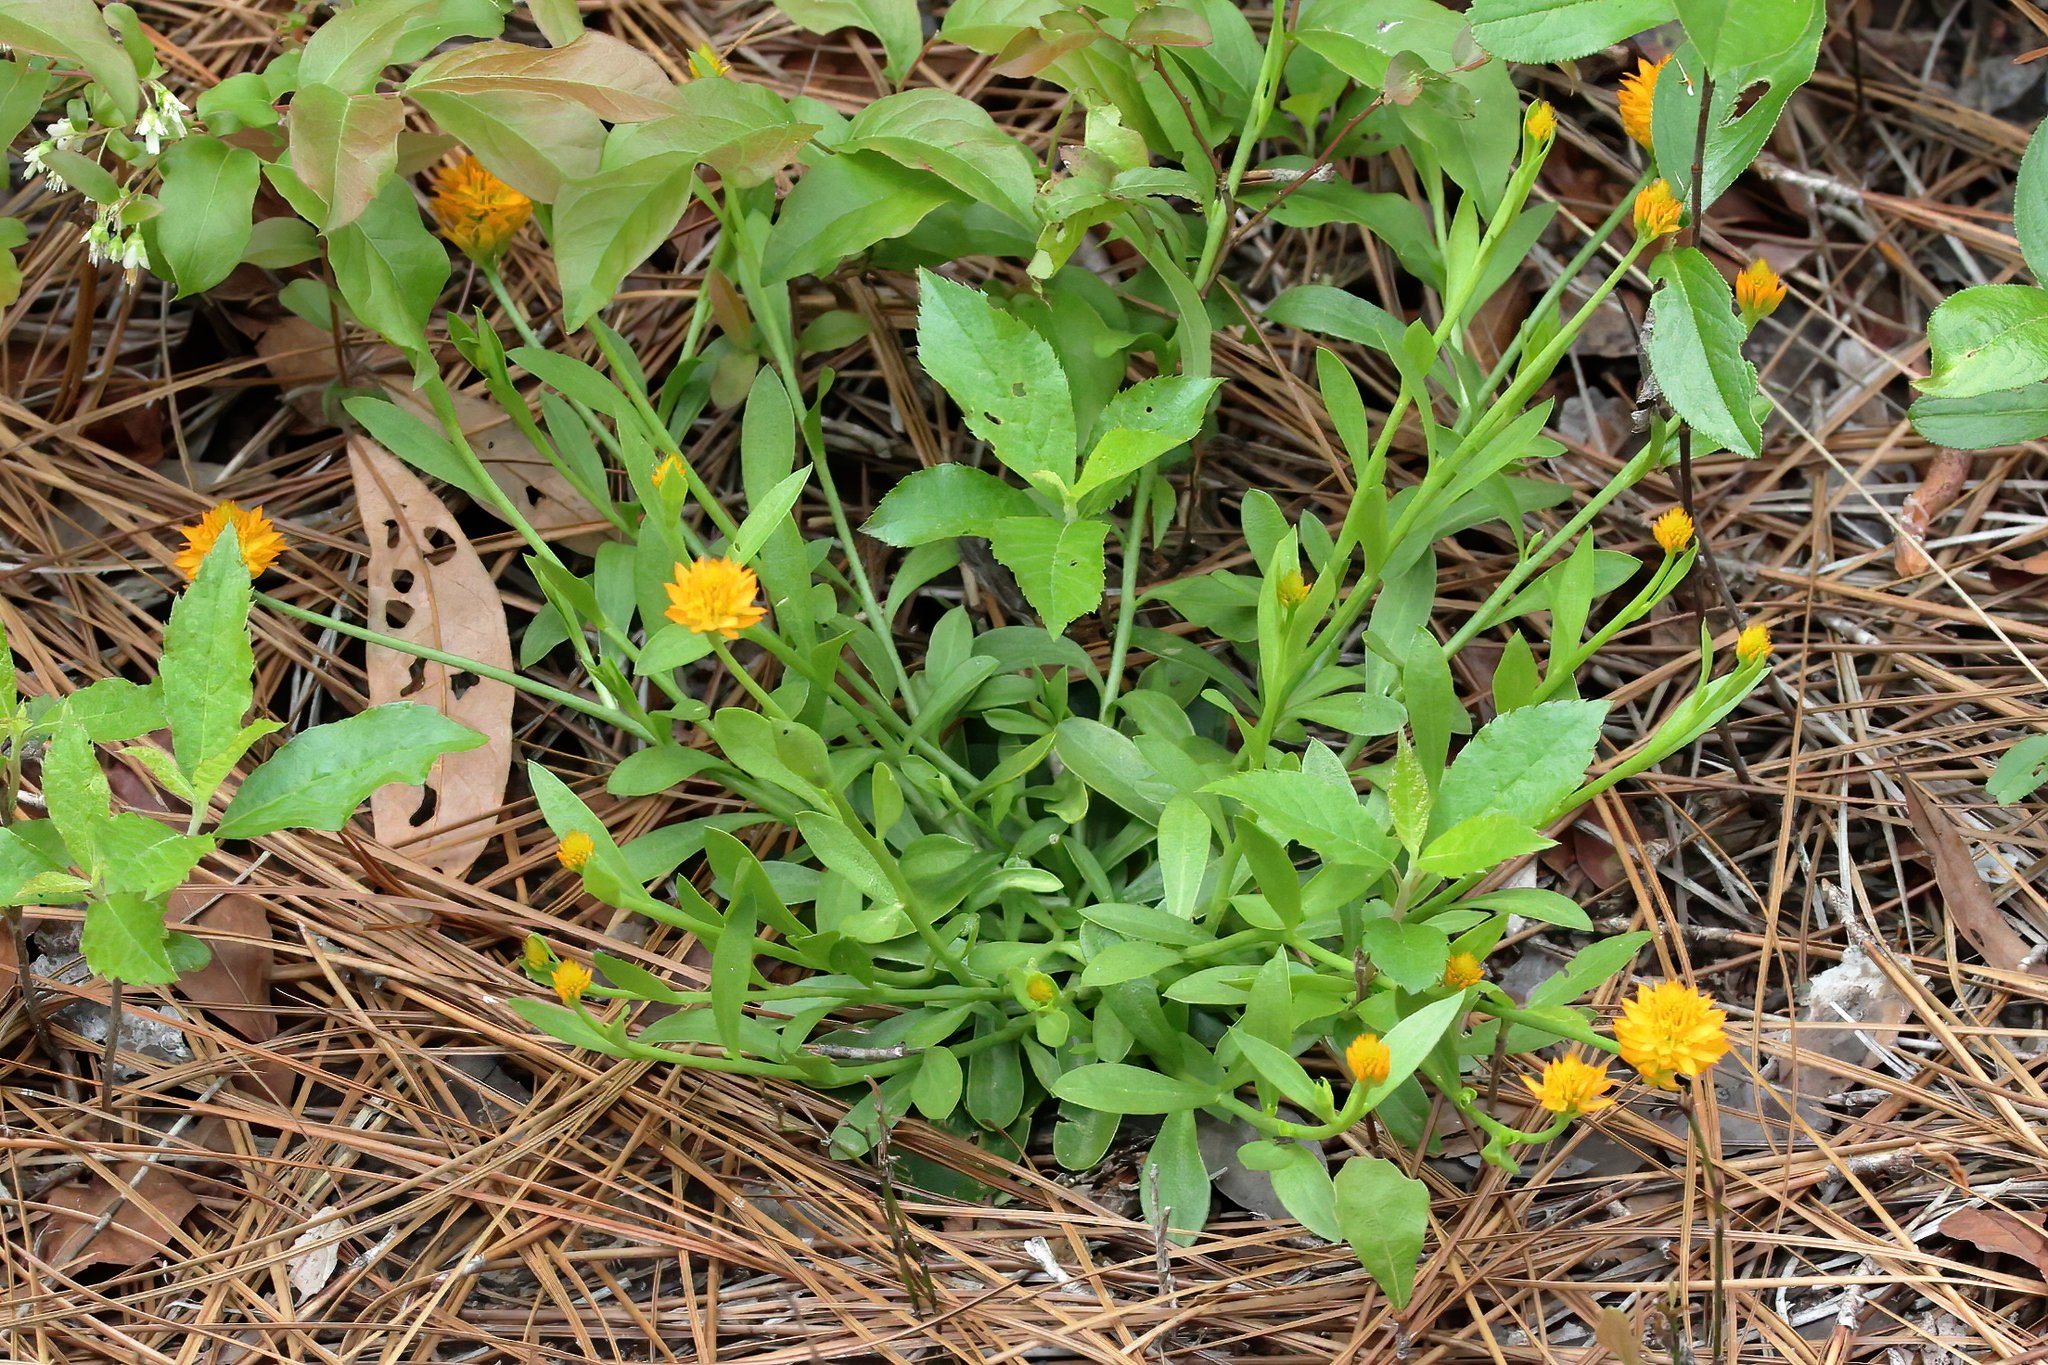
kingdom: Plantae
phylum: Tracheophyta
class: Magnoliopsida
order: Fabales
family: Polygalaceae
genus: Polygala
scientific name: Polygala lutea
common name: Orange milkwort
